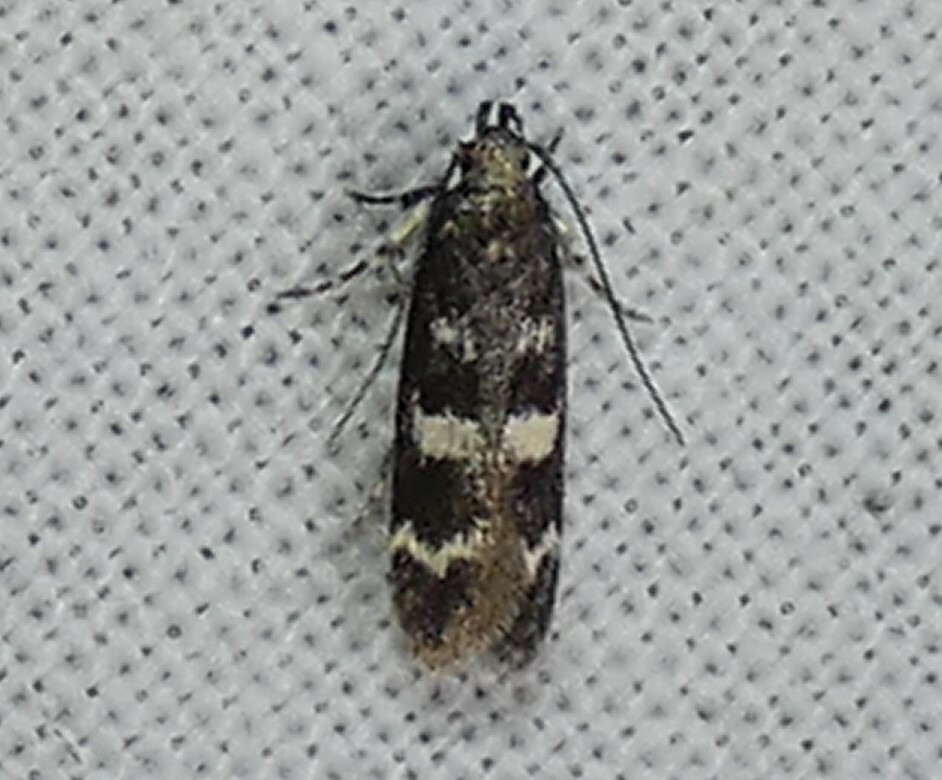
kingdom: Animalia
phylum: Arthropoda
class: Insecta
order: Lepidoptera
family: Gelechiidae
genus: Fascista
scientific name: Fascista bimaculella
